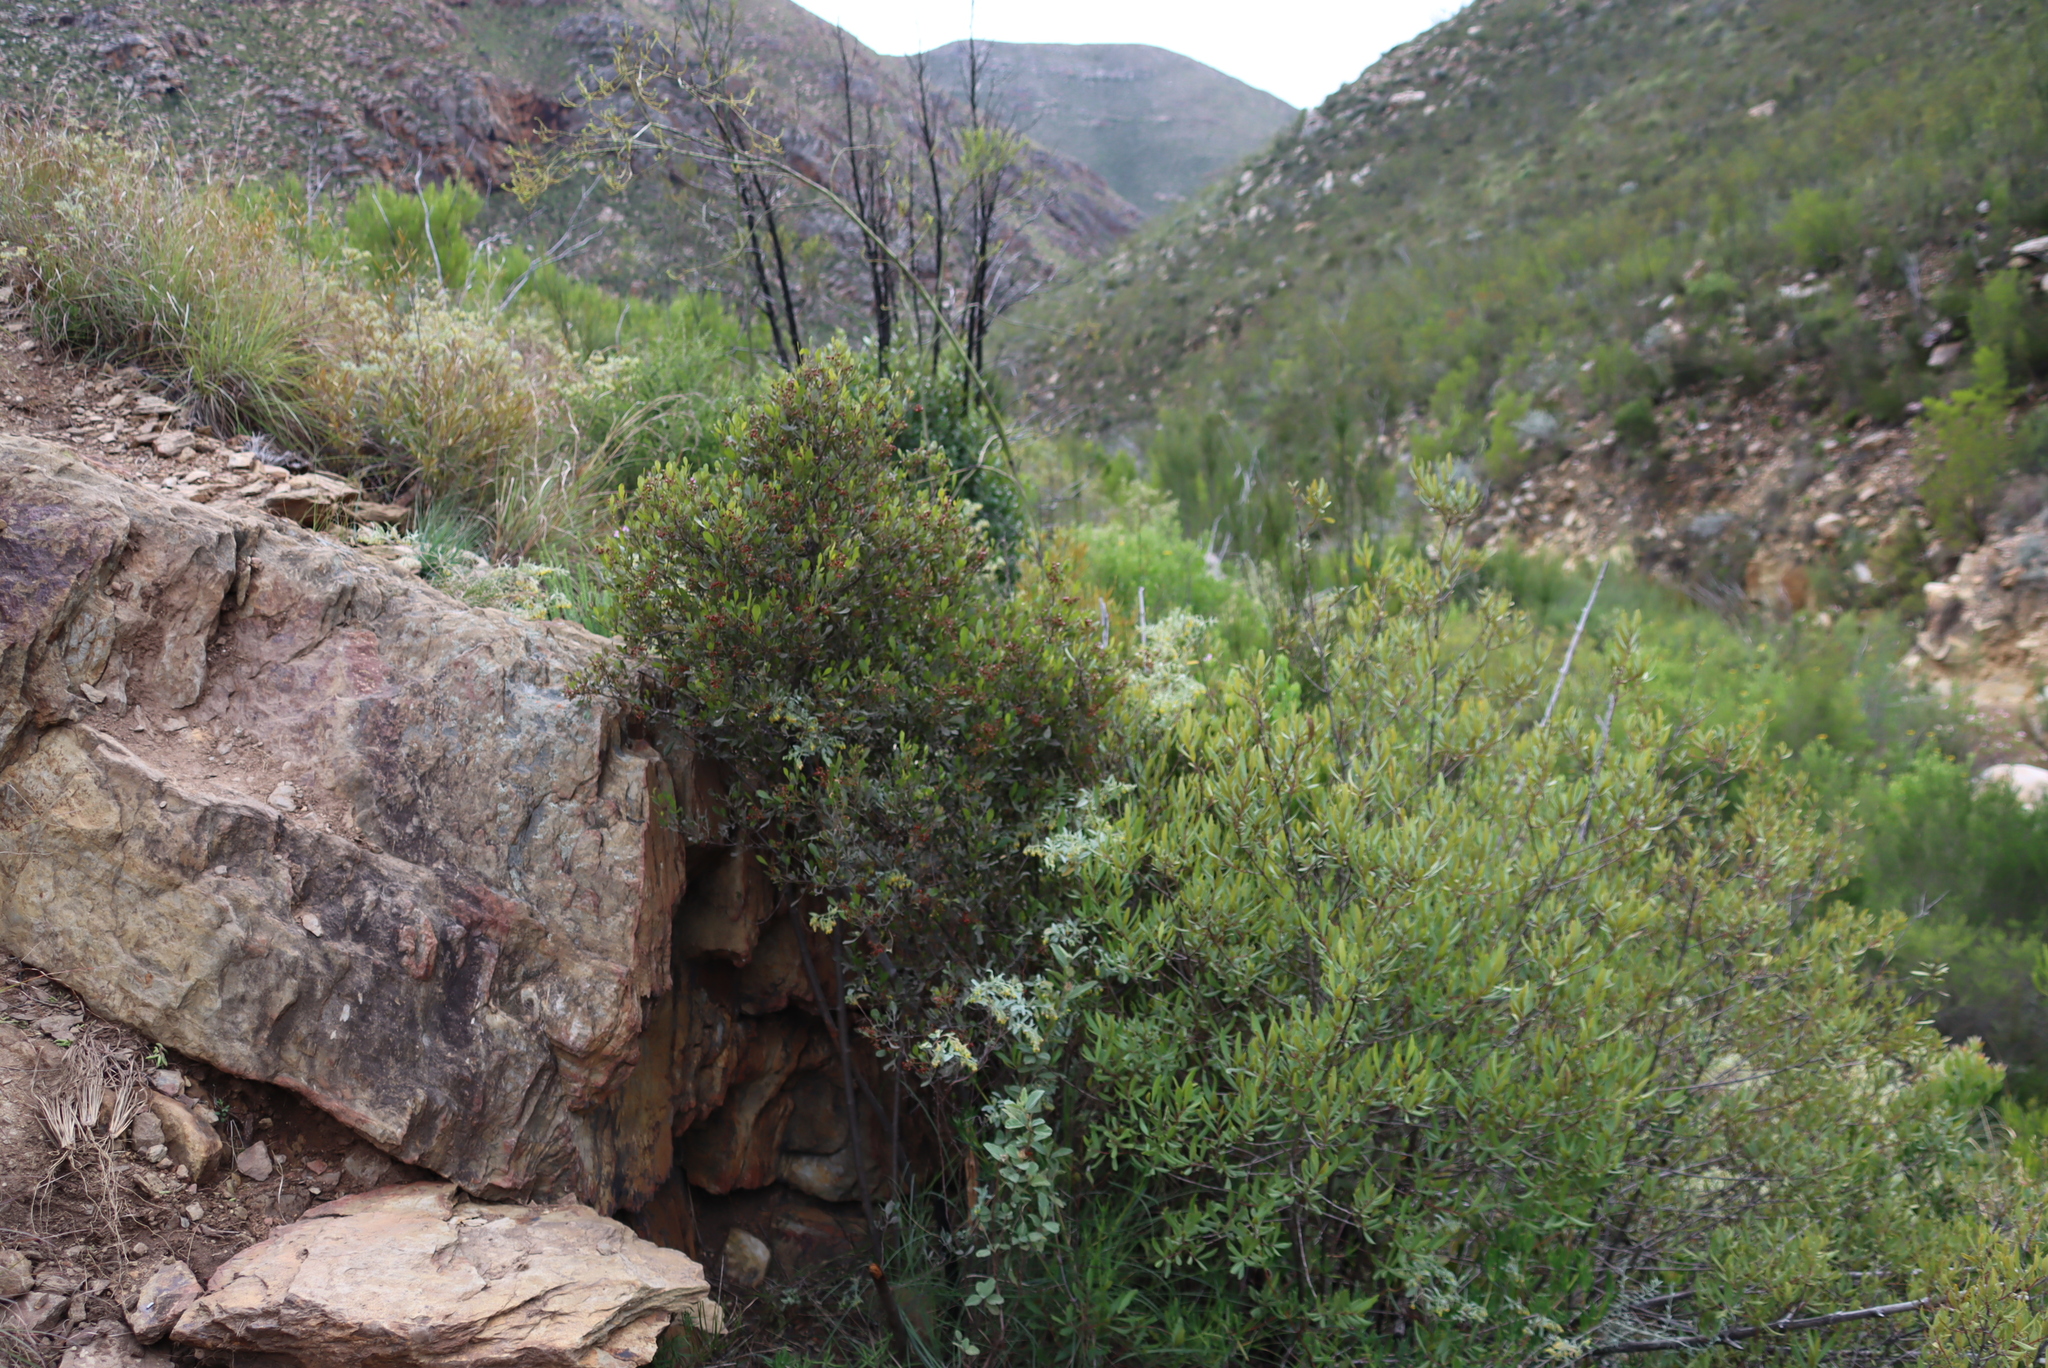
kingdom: Plantae
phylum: Tracheophyta
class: Magnoliopsida
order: Sapindales
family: Anacardiaceae
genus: Searsia
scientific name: Searsia pallens
